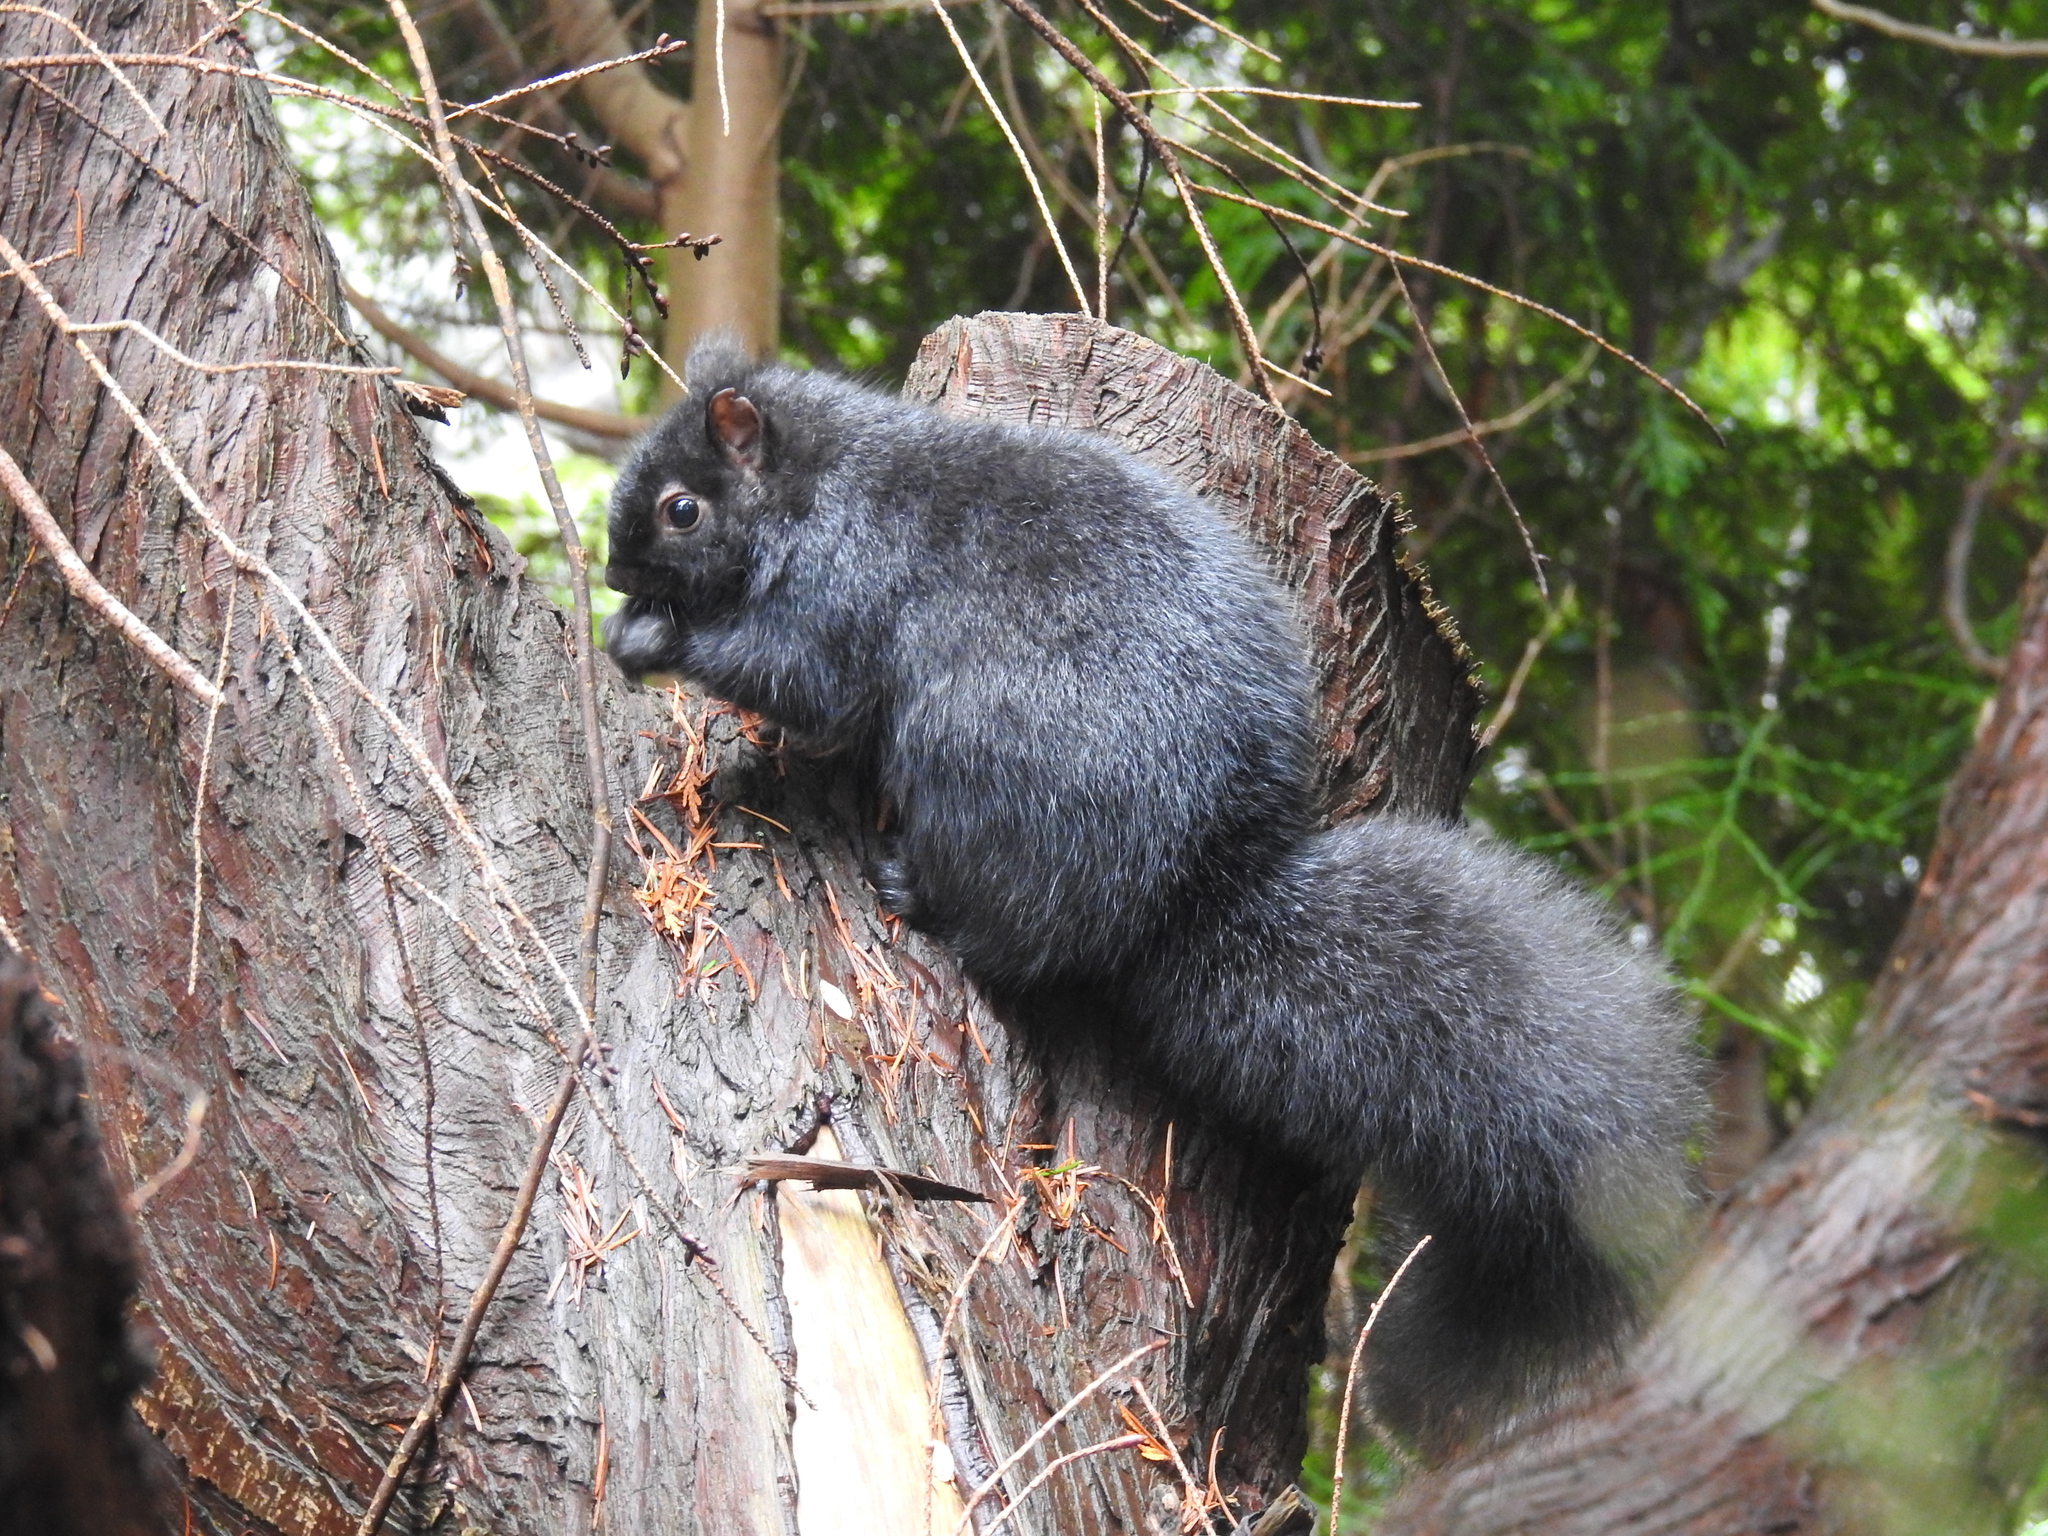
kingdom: Animalia
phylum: Chordata
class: Mammalia
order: Rodentia
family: Sciuridae
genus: Sciurus
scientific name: Sciurus carolinensis
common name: Eastern gray squirrel
